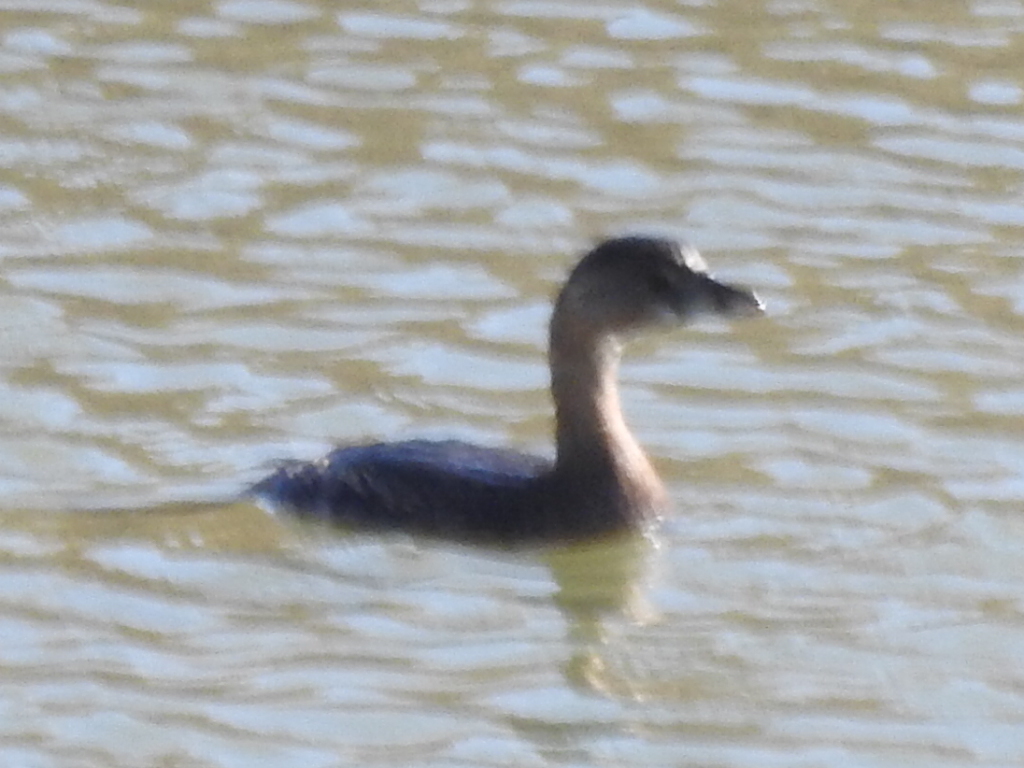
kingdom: Animalia
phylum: Chordata
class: Aves
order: Podicipediformes
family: Podicipedidae
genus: Podilymbus
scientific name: Podilymbus podiceps
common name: Pied-billed grebe
